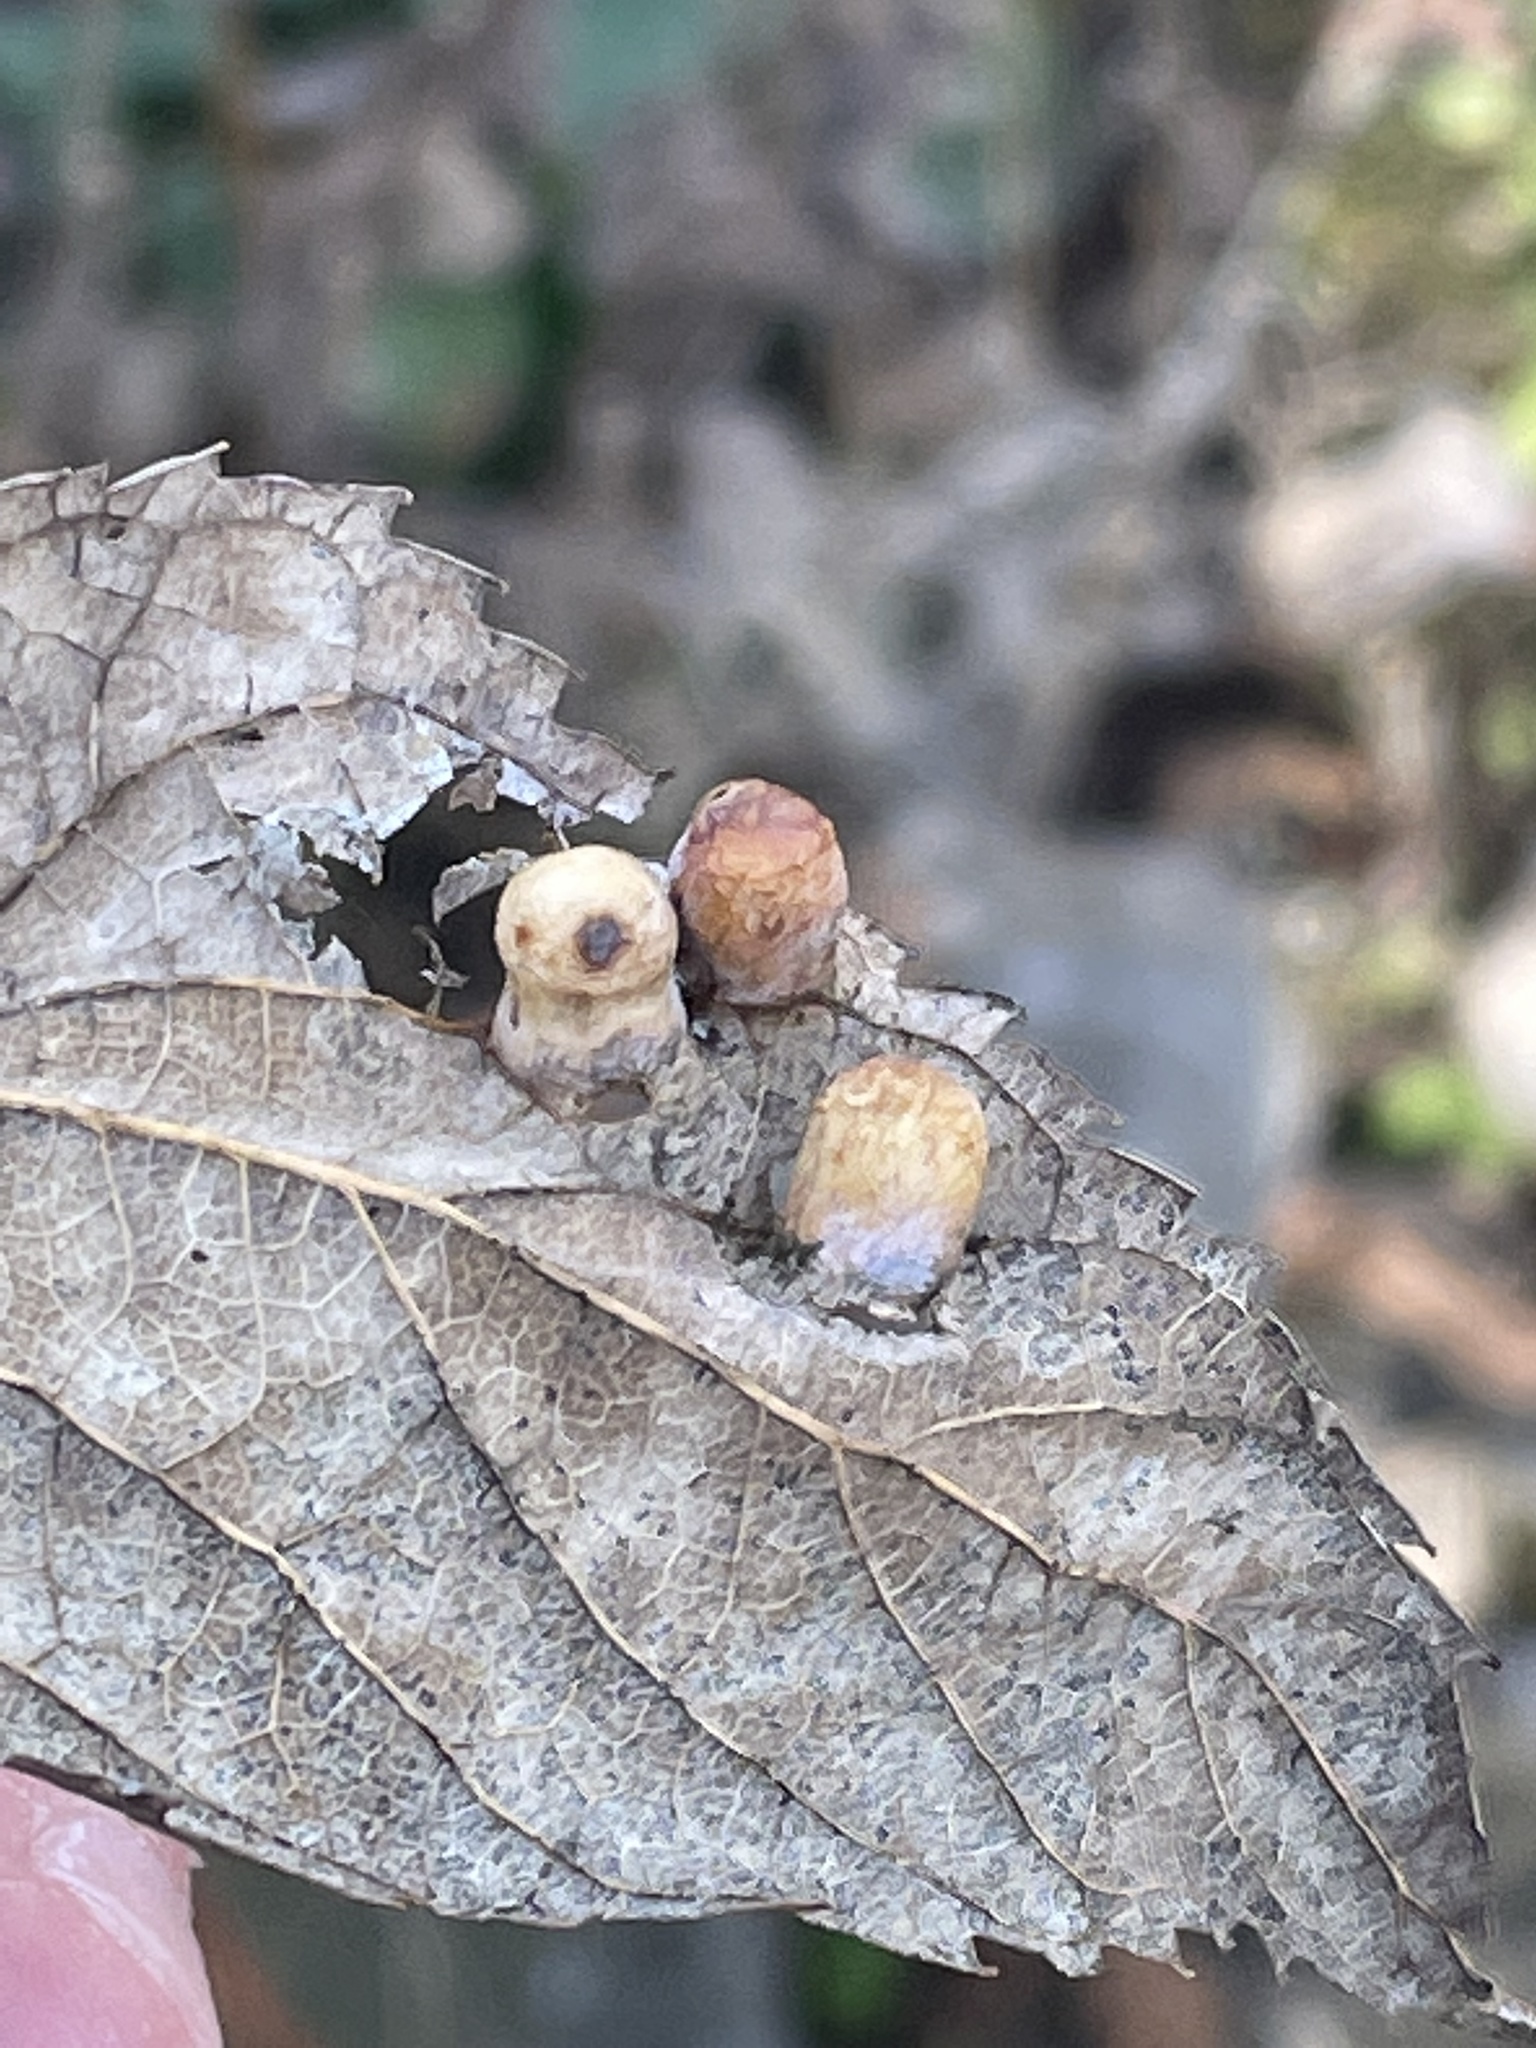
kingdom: Animalia
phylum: Arthropoda
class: Insecta
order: Hemiptera
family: Aphalaridae
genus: Pachypsylla
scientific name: Pachypsylla celtidismamma
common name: Hackberry nipplegall psyllid
